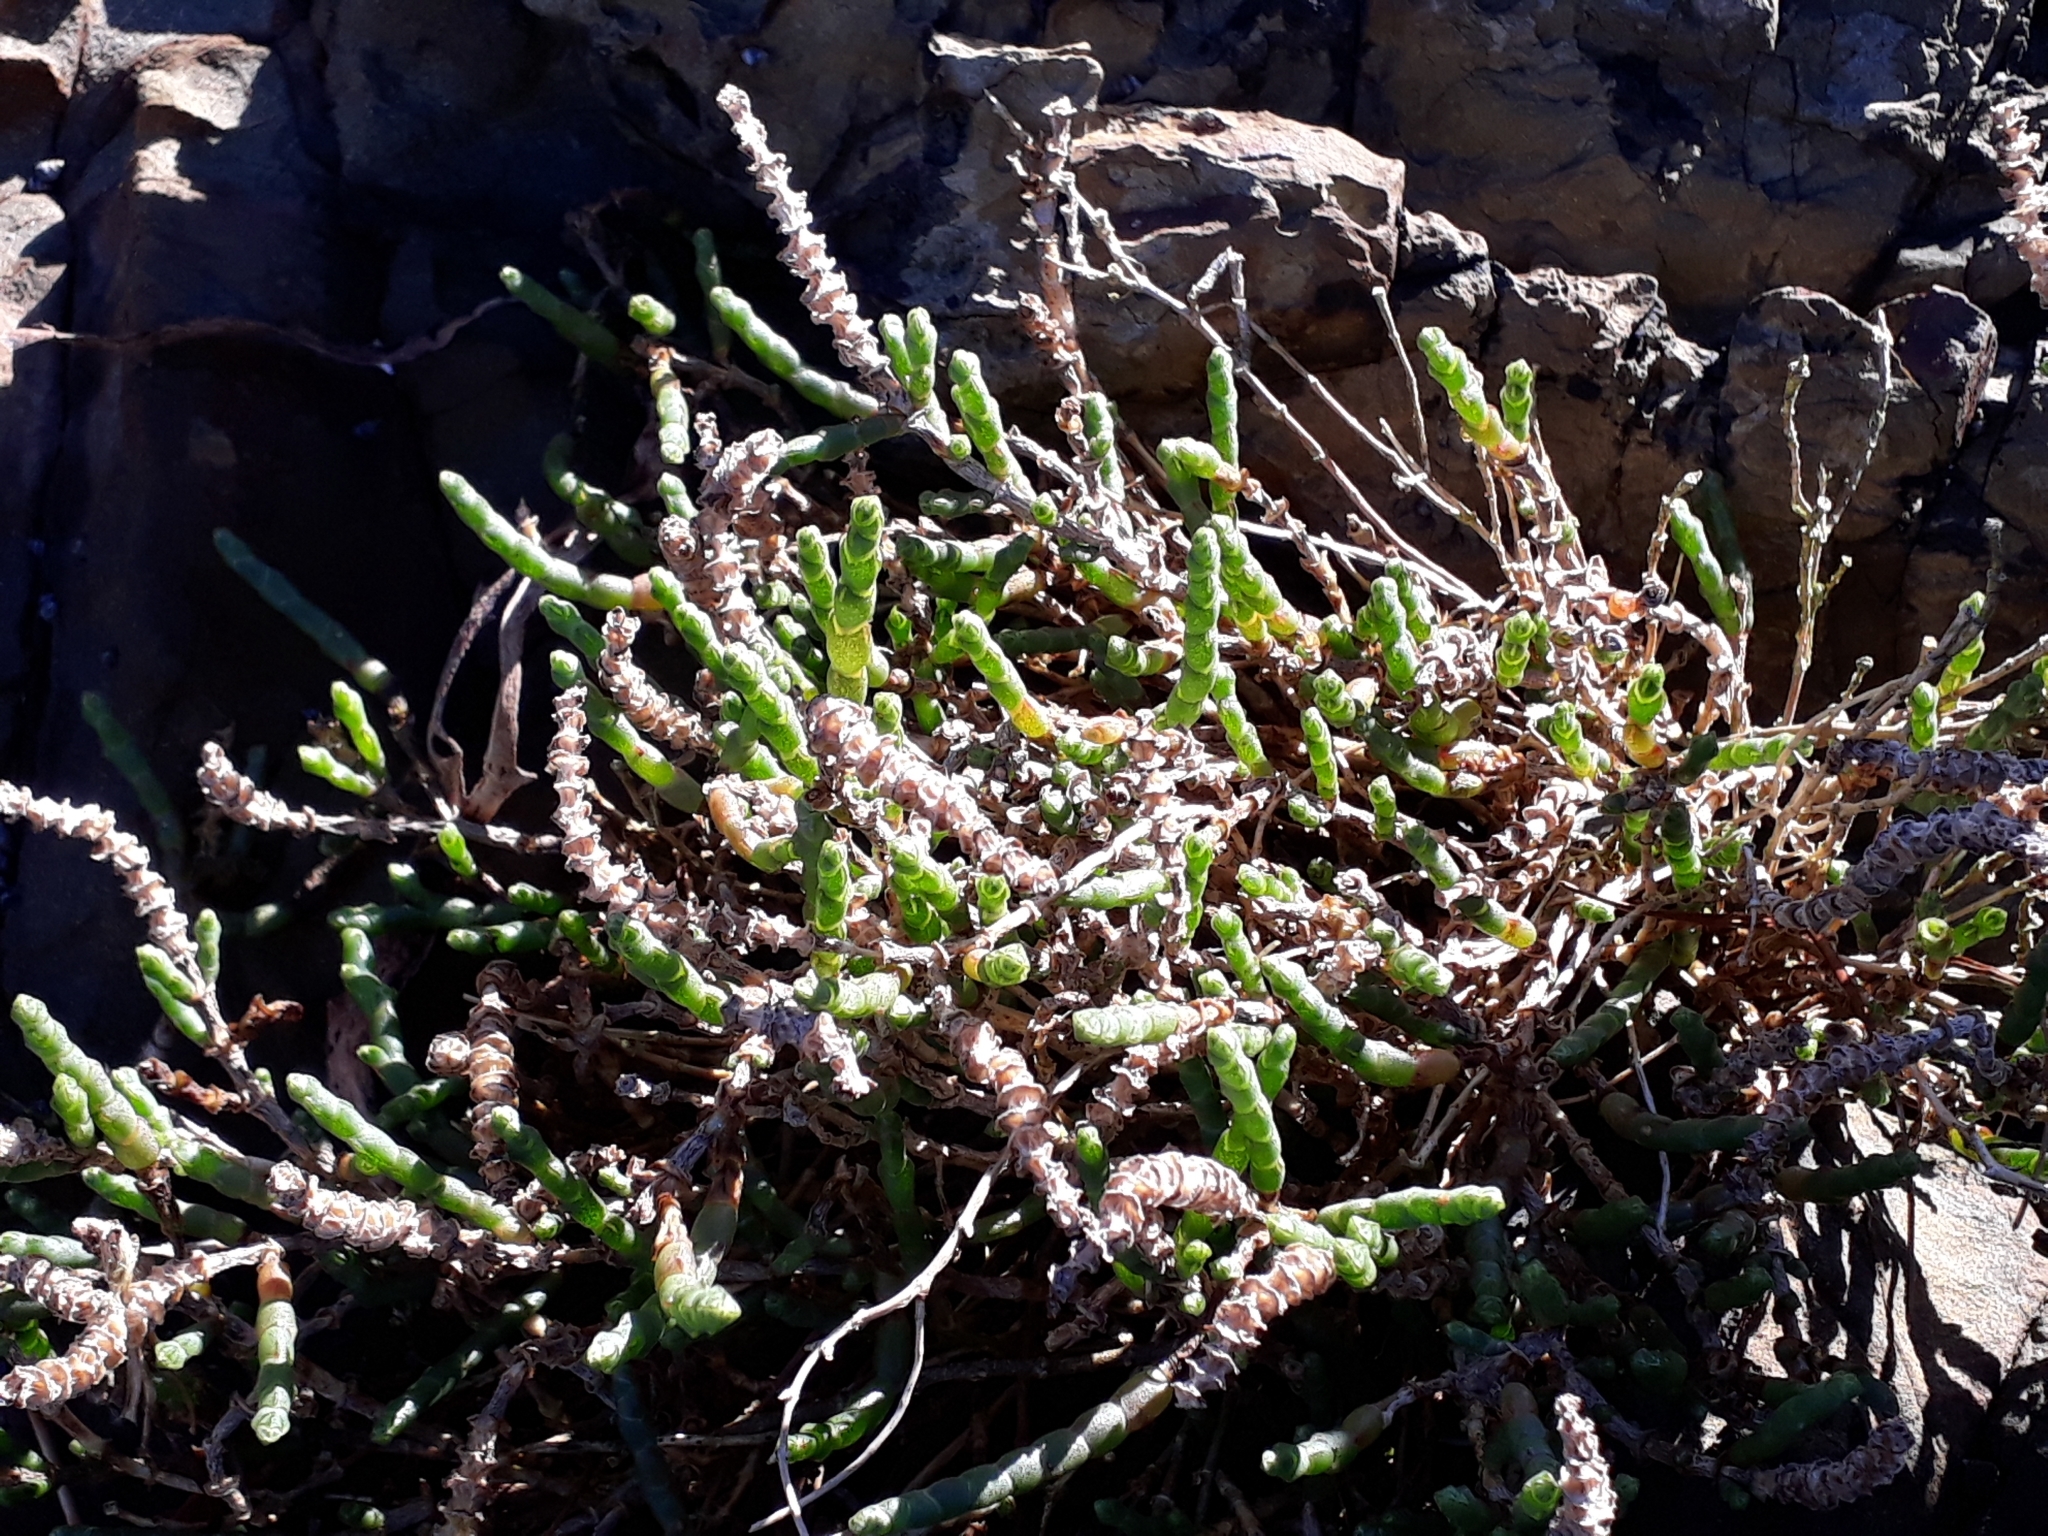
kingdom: Plantae
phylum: Tracheophyta
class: Magnoliopsida
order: Caryophyllales
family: Amaranthaceae
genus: Salicornia
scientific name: Salicornia quinqueflora
